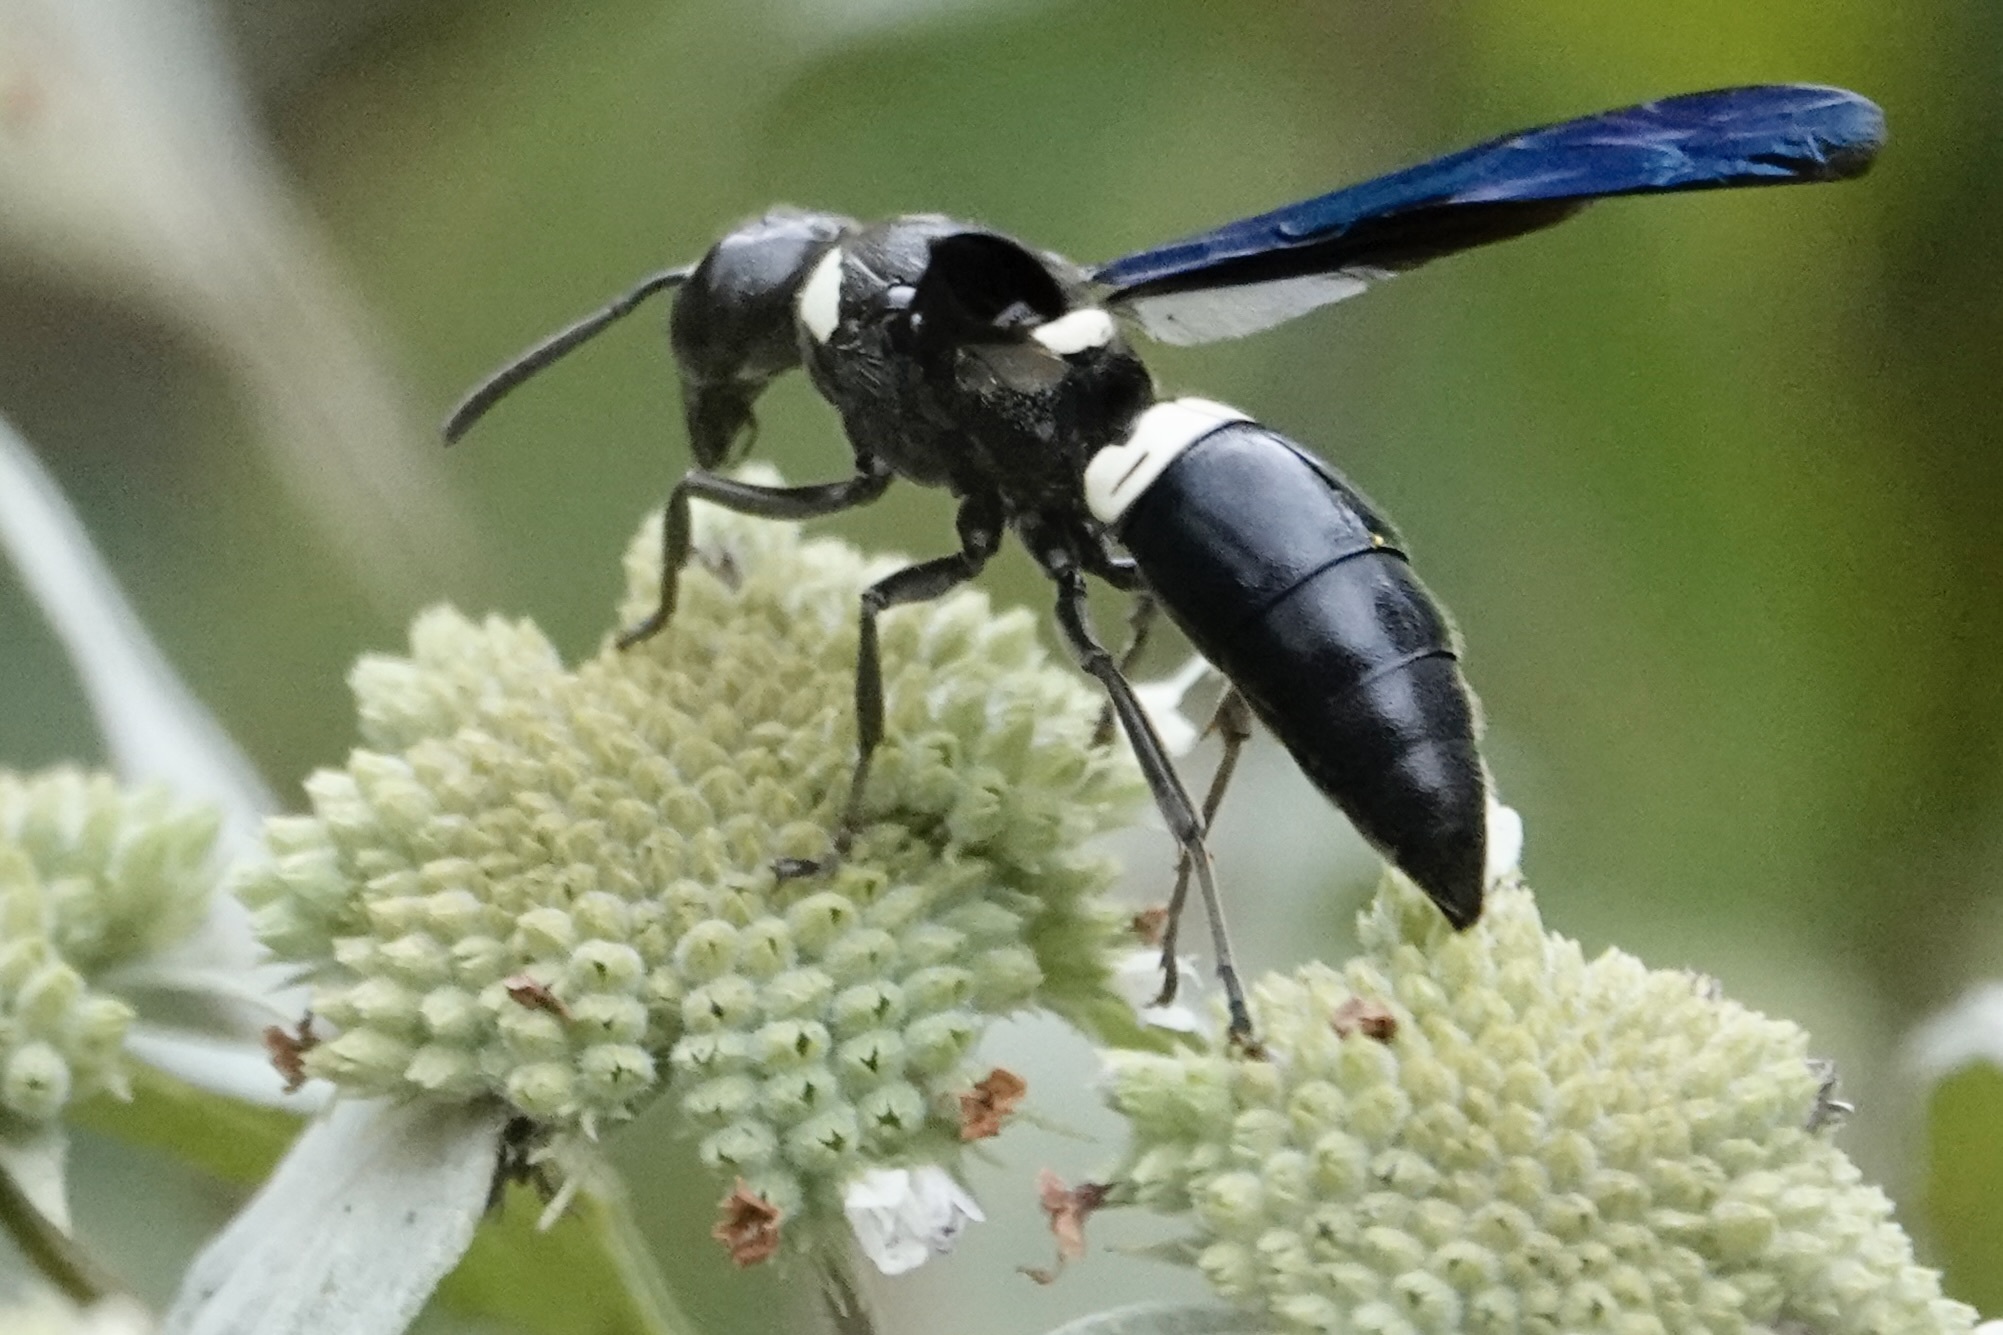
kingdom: Animalia
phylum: Arthropoda
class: Insecta
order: Hymenoptera
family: Eumenidae
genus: Monobia
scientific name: Monobia quadridens
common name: Four-toothed mason wasp
